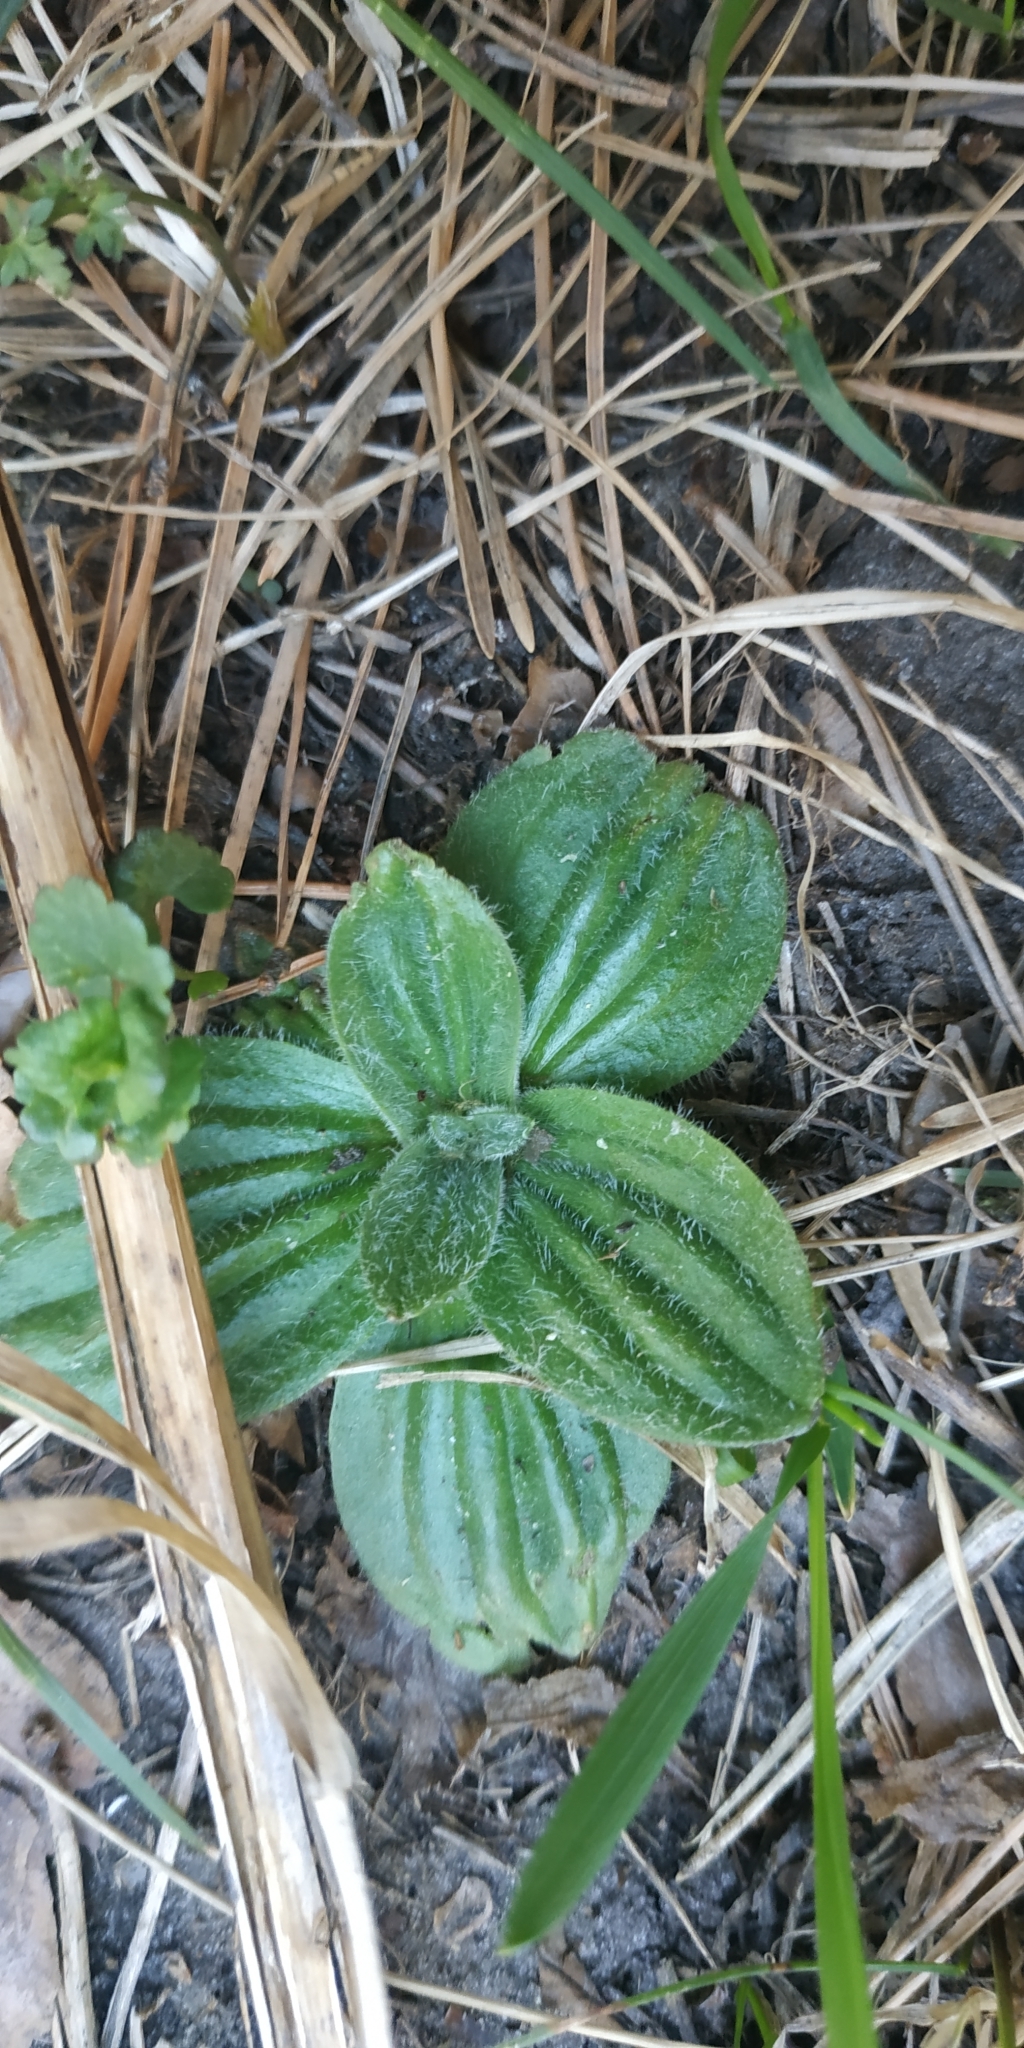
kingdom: Plantae
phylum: Tracheophyta
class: Magnoliopsida
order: Lamiales
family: Plantaginaceae
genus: Plantago
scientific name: Plantago media
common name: Hoary plantain
